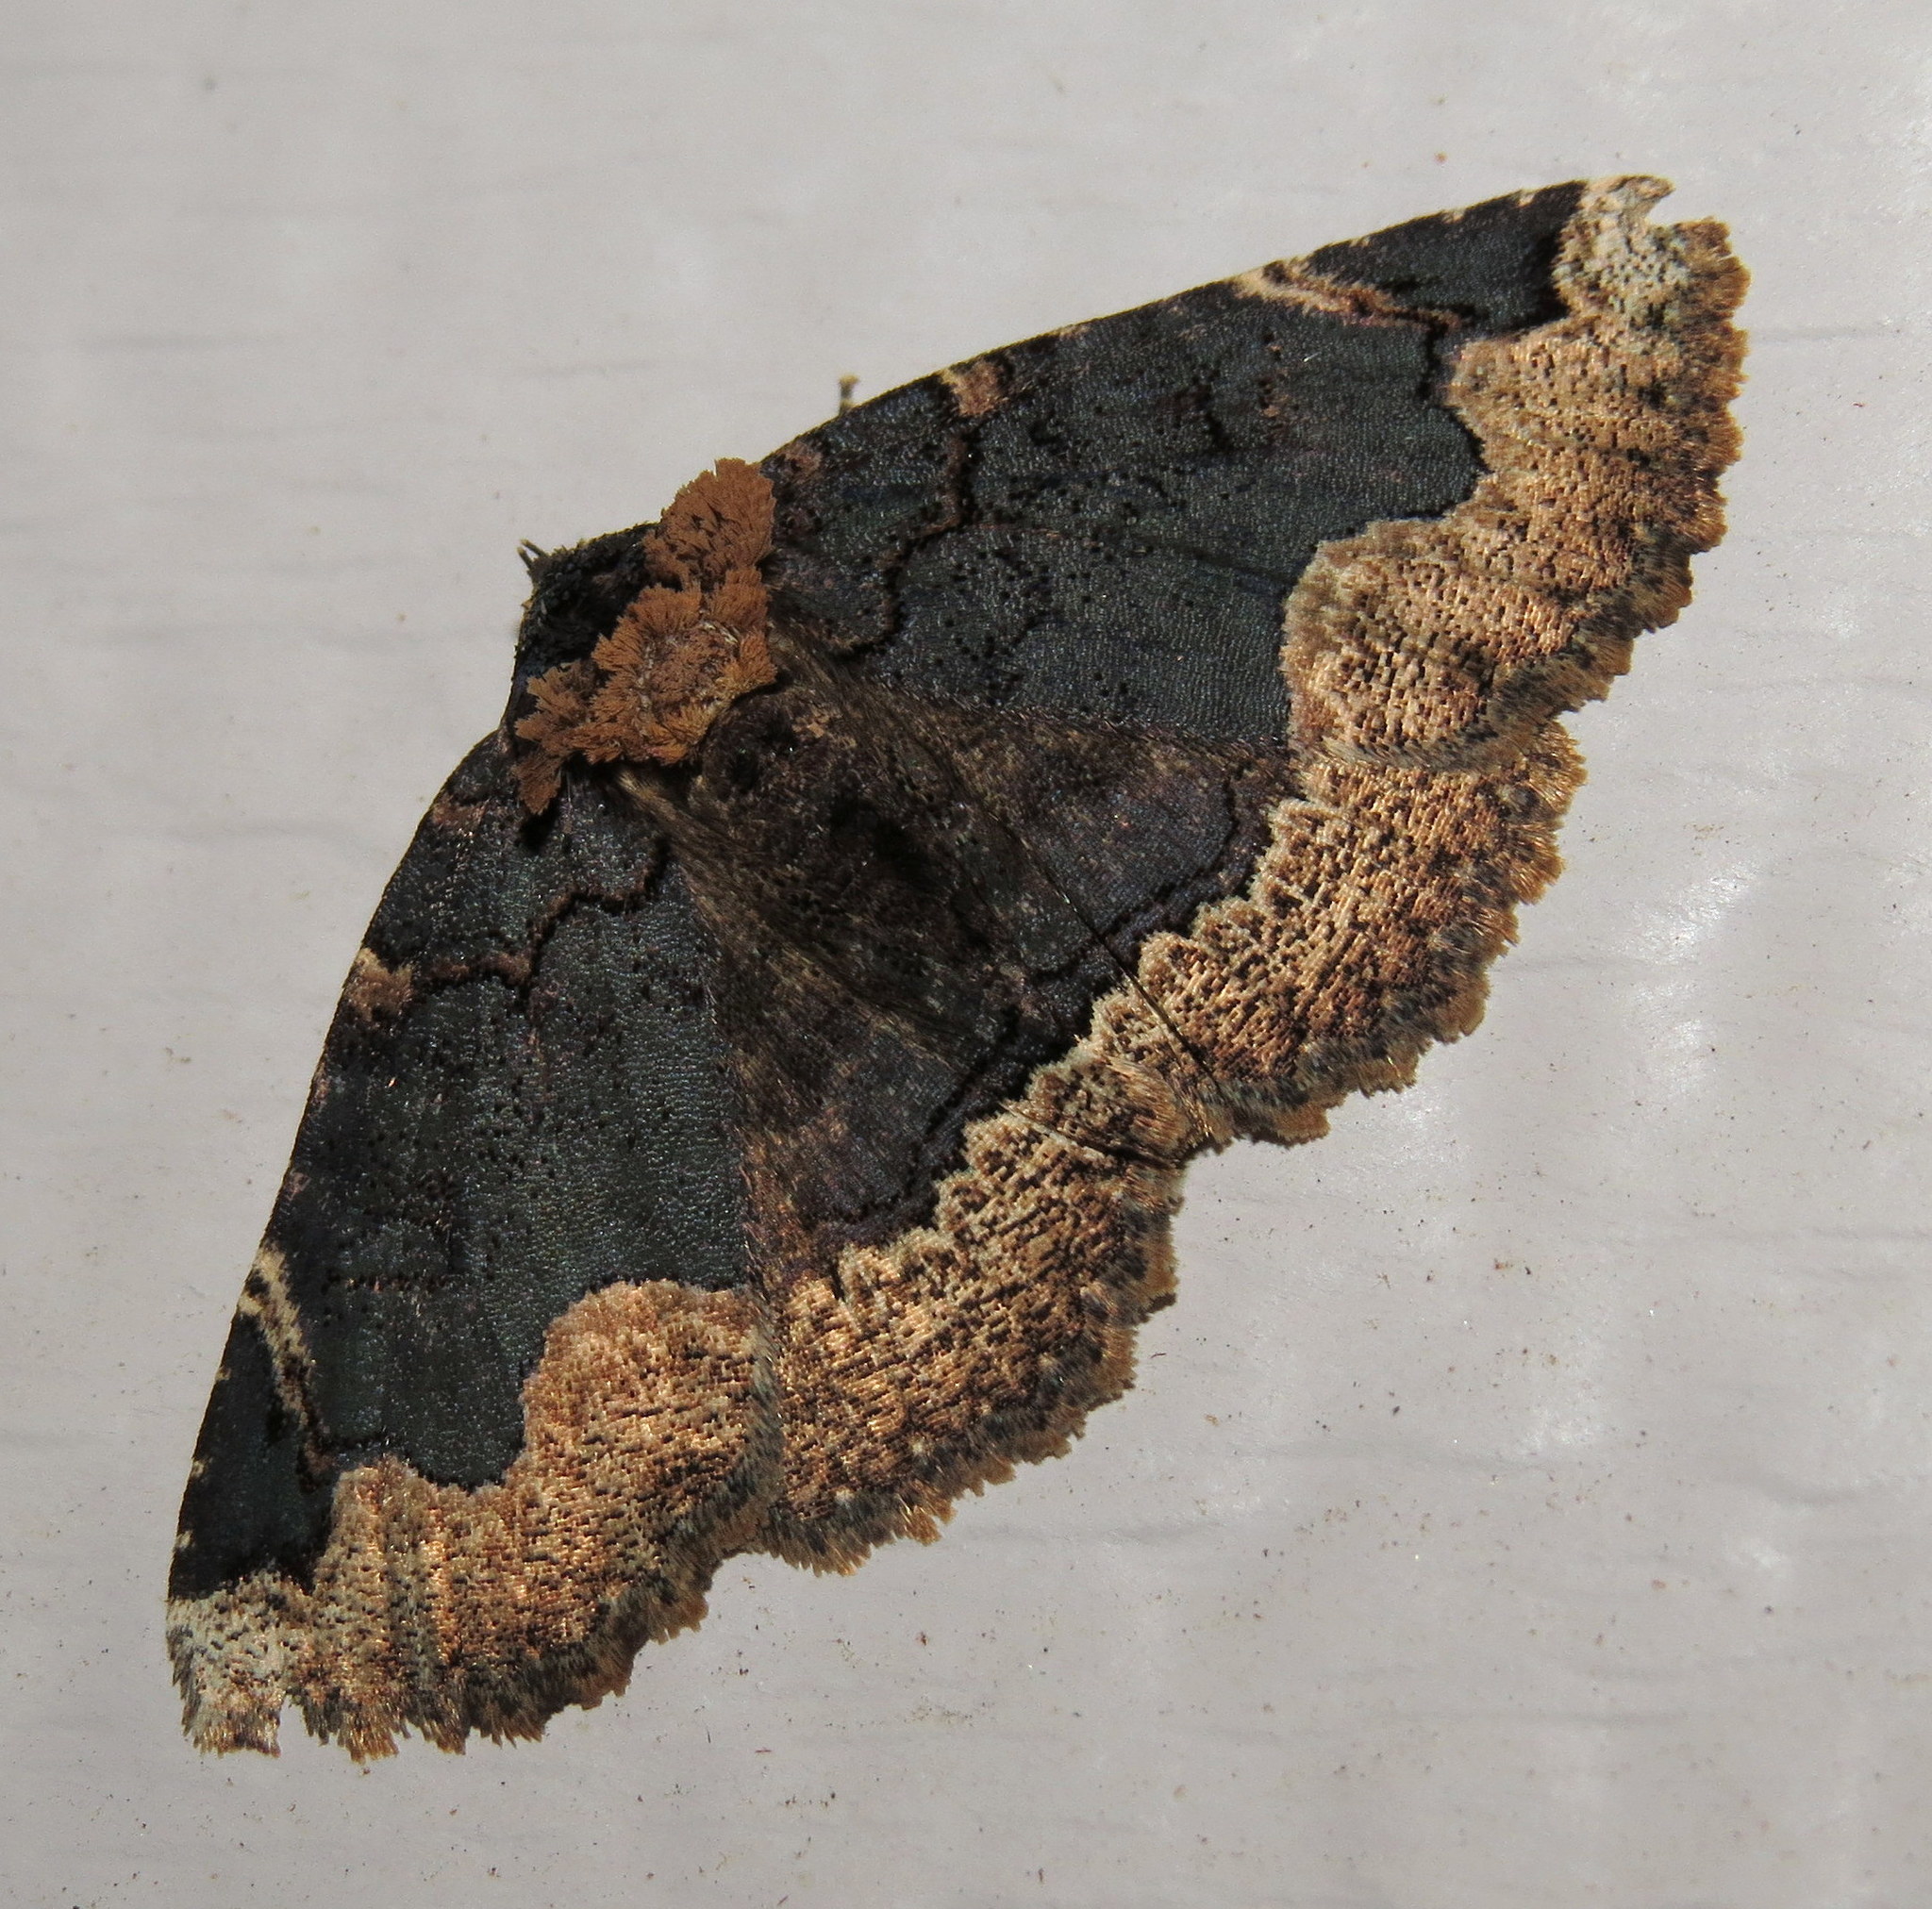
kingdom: Animalia
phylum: Arthropoda
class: Insecta
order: Lepidoptera
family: Erebidae
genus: Zale
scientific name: Zale horrida
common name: Horrid zale moth
